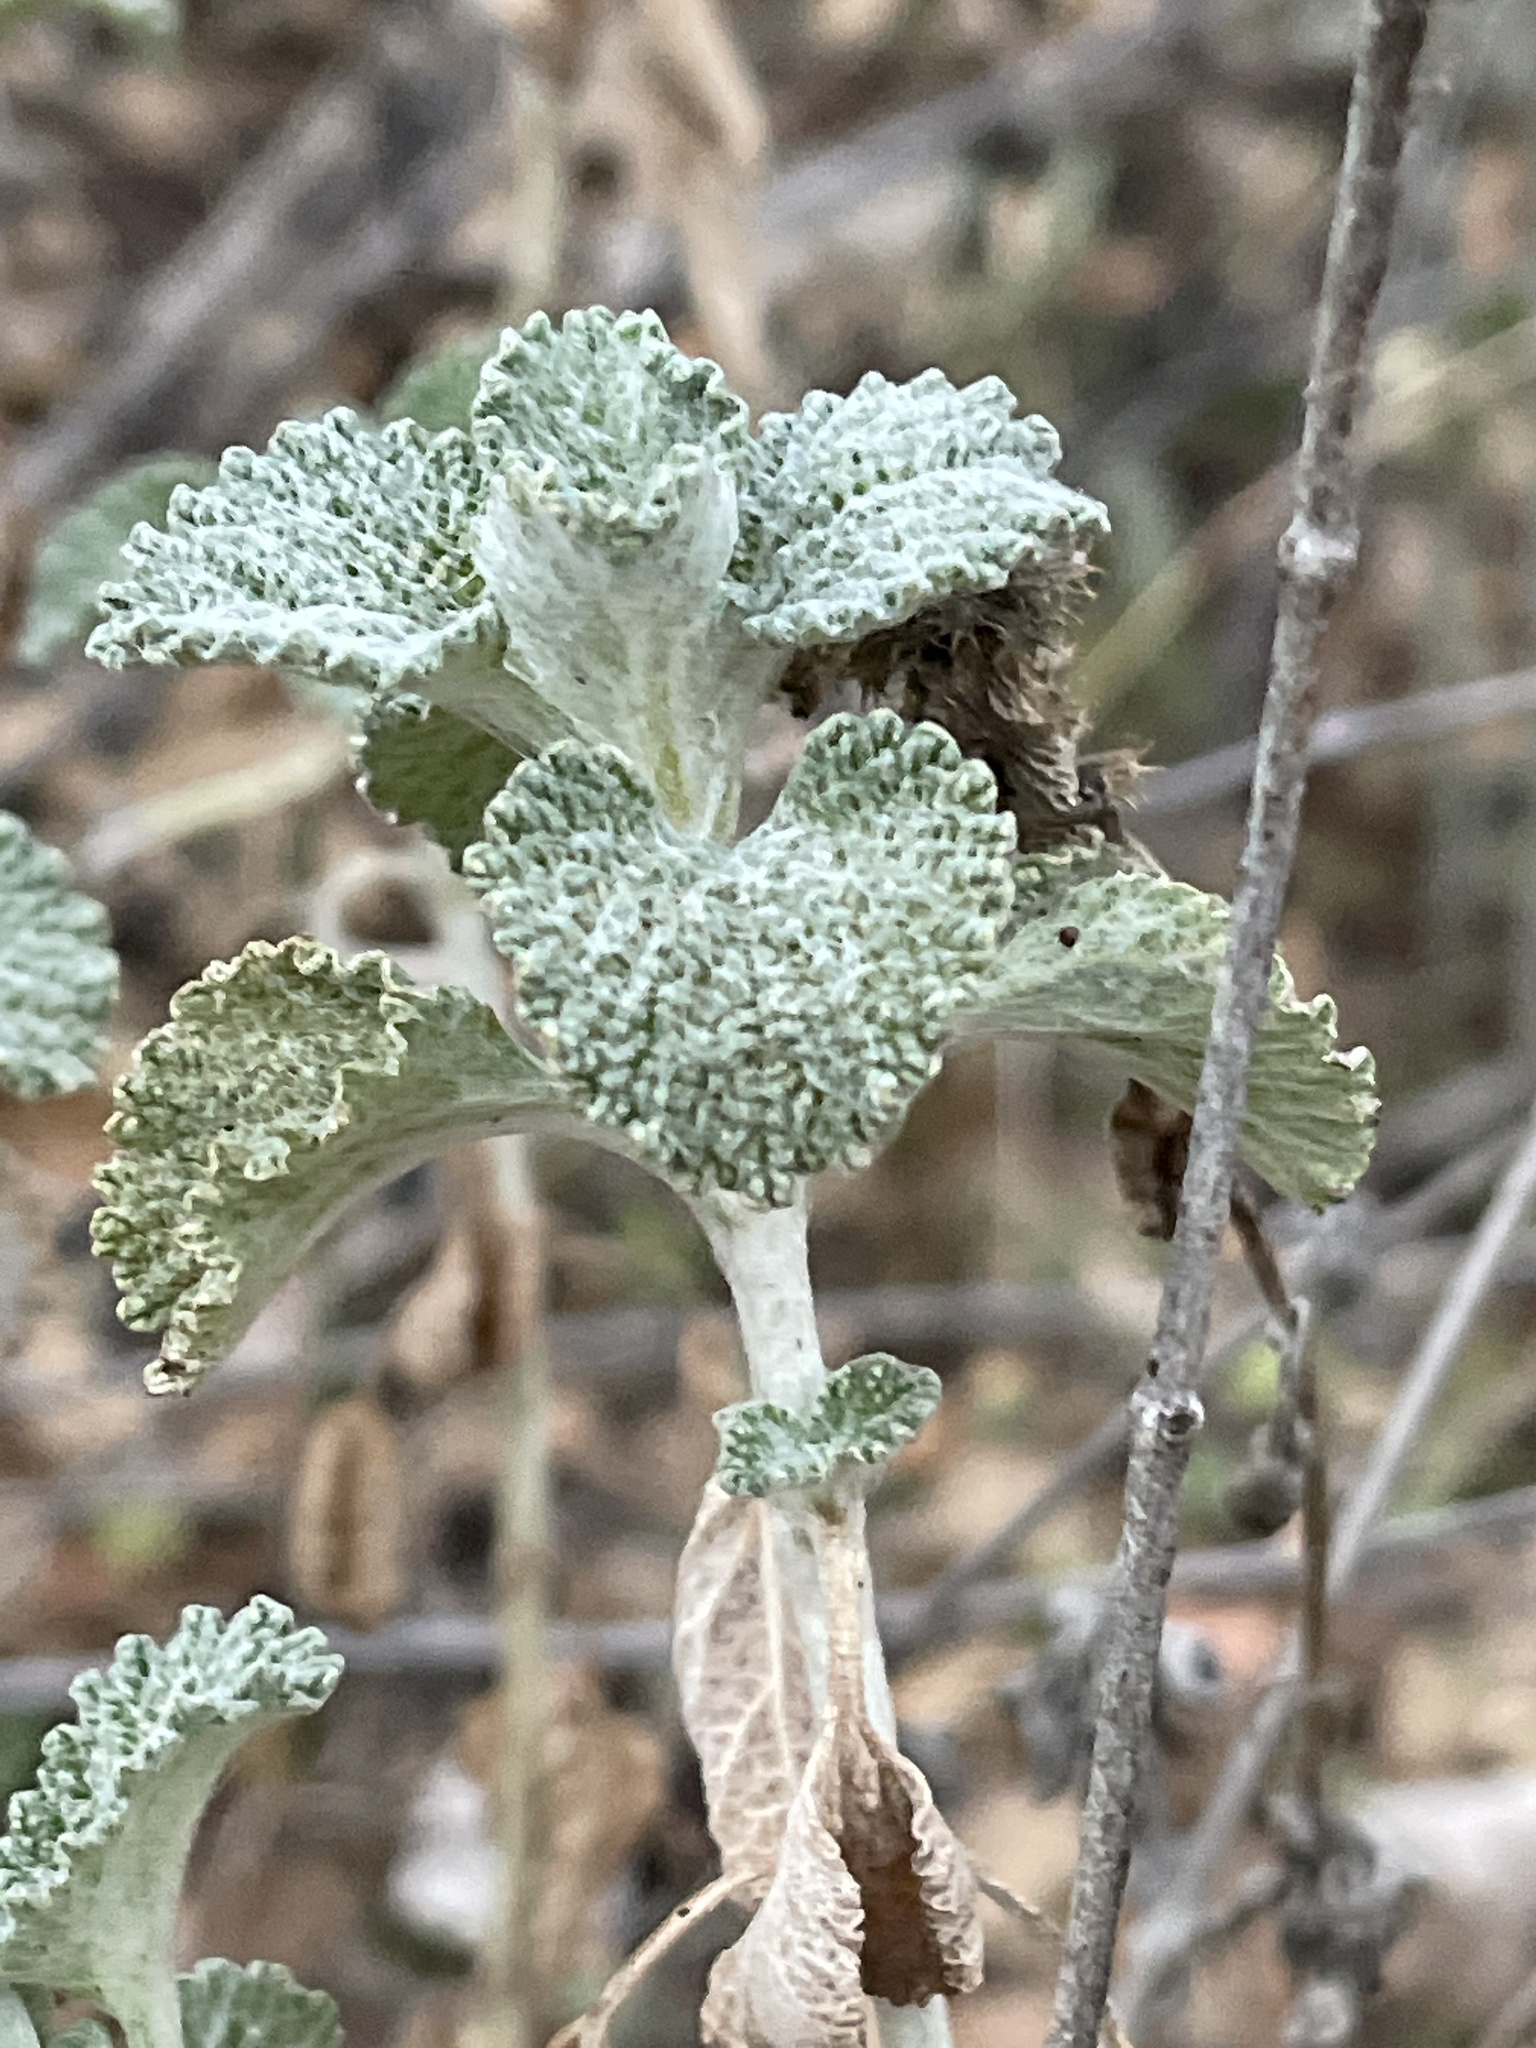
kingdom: Plantae
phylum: Tracheophyta
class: Magnoliopsida
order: Lamiales
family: Lamiaceae
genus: Marrubium
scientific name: Marrubium vulgare
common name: Horehound
